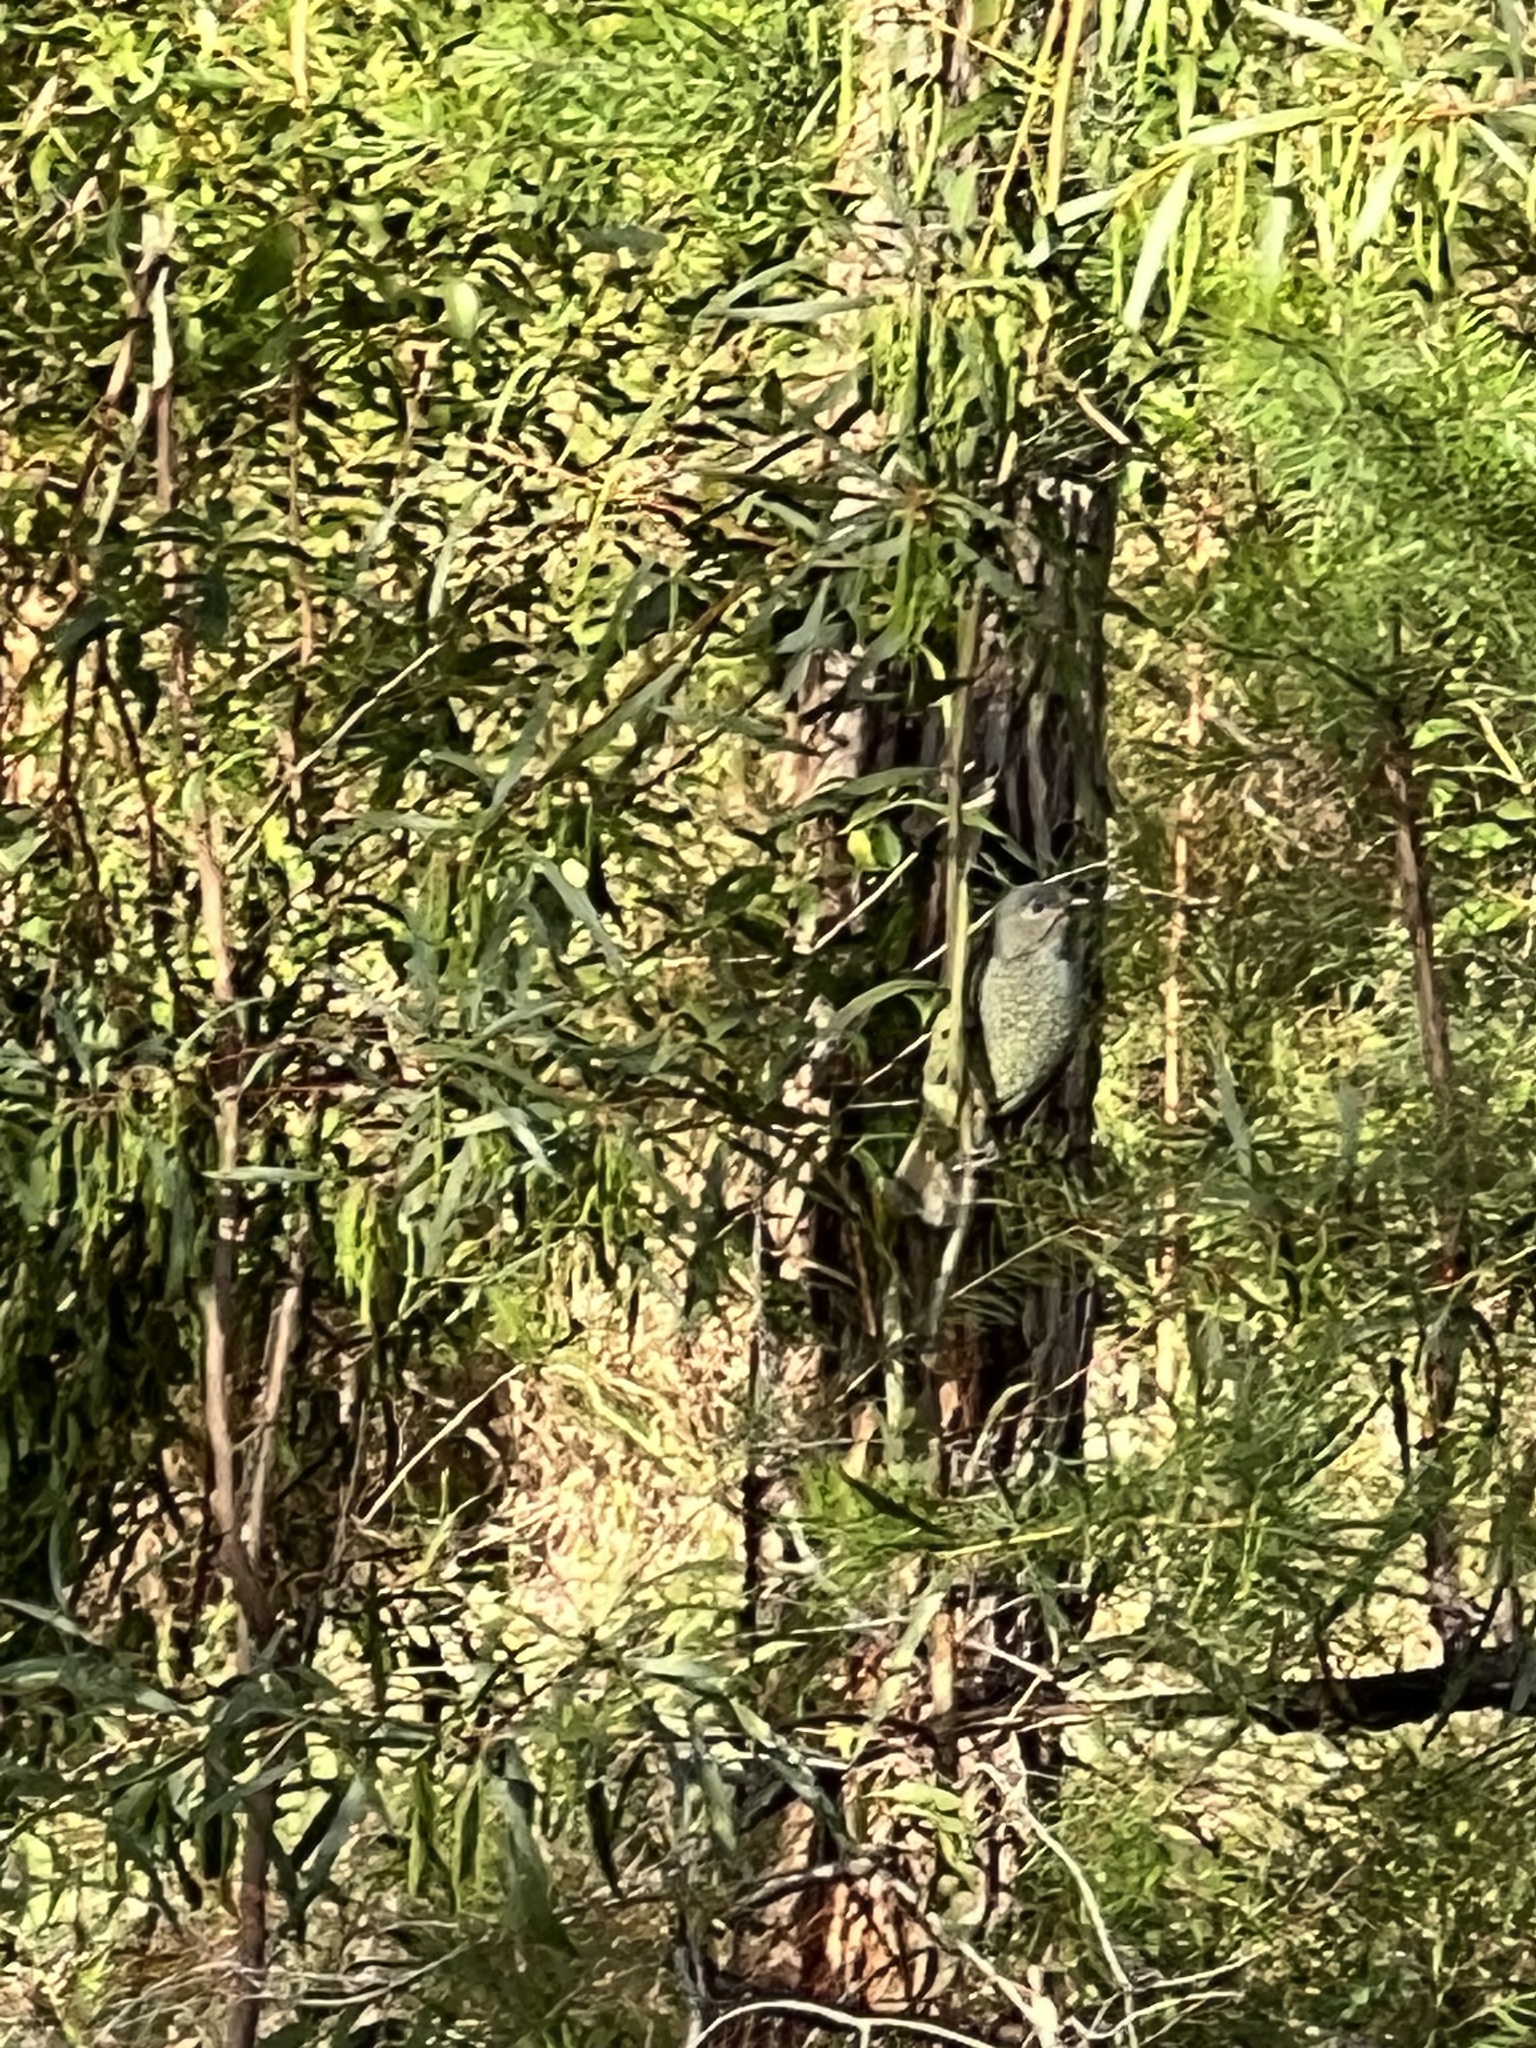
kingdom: Animalia
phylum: Chordata
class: Aves
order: Passeriformes
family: Ptilonorhynchidae
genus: Ptilonorhynchus
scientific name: Ptilonorhynchus violaceus
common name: Satin bowerbird
